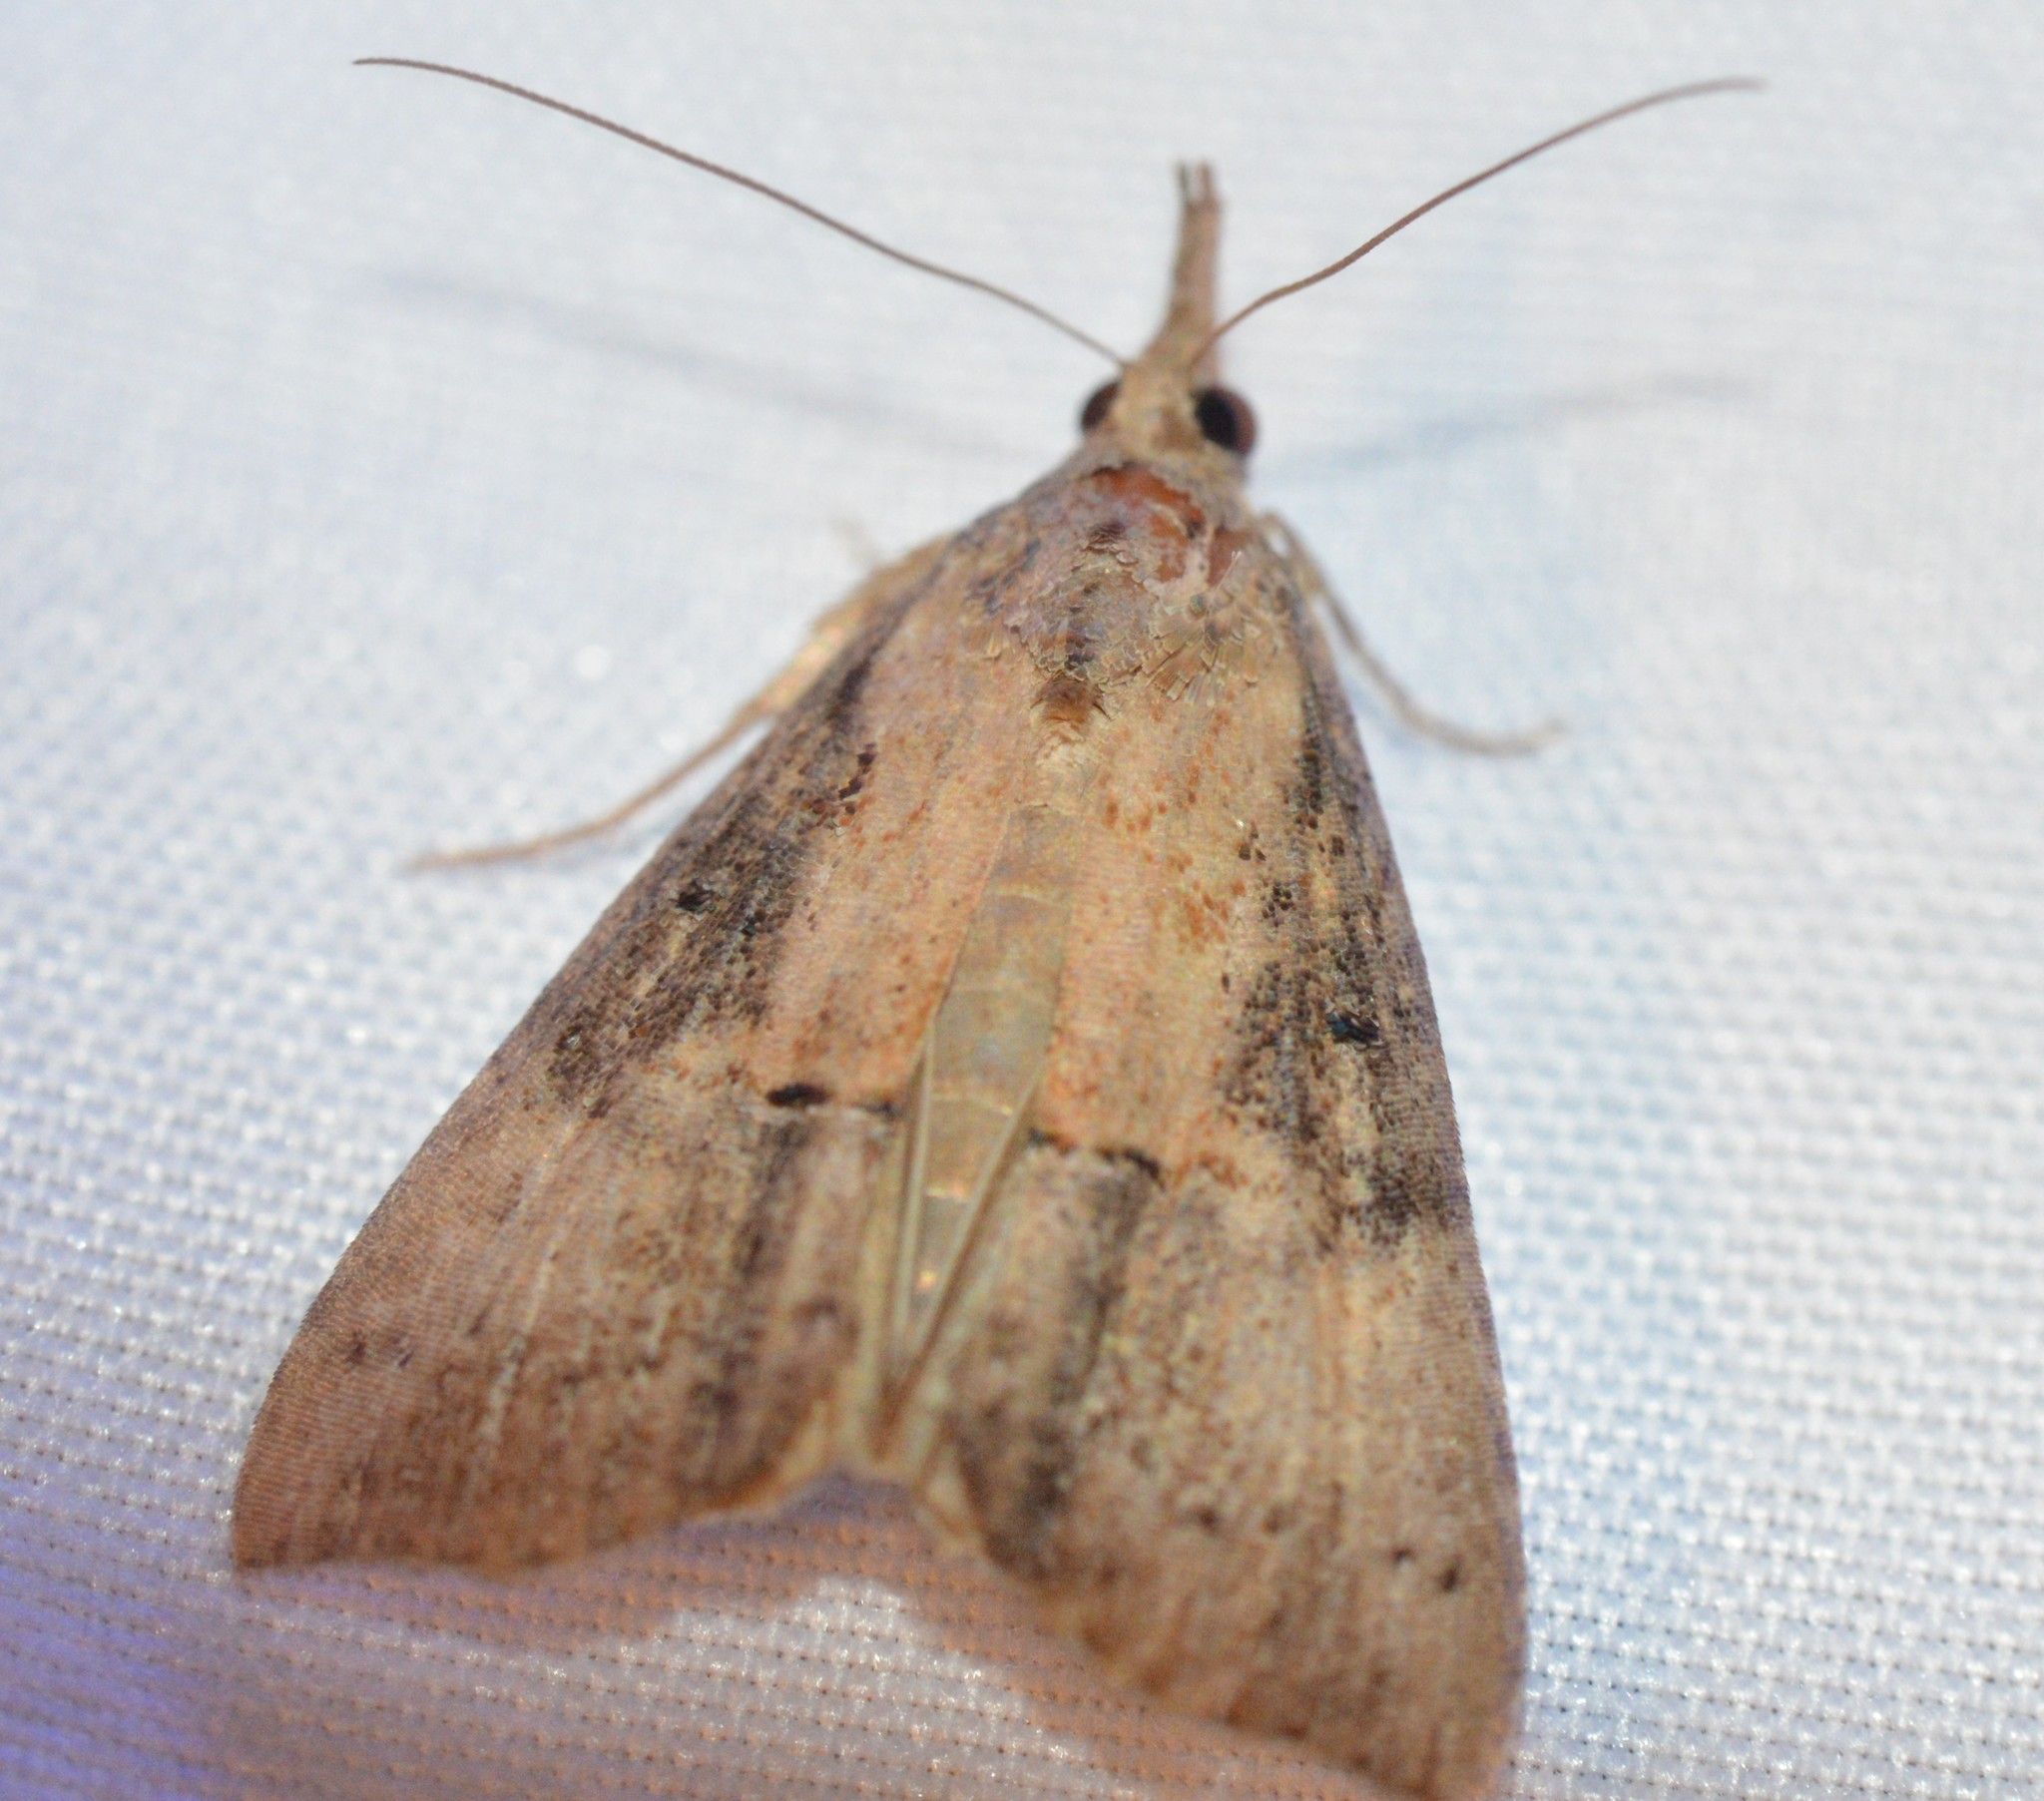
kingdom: Animalia
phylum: Arthropoda
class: Insecta
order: Lepidoptera
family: Erebidae
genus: Hypena
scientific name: Hypena scabra
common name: Green cloverworm
